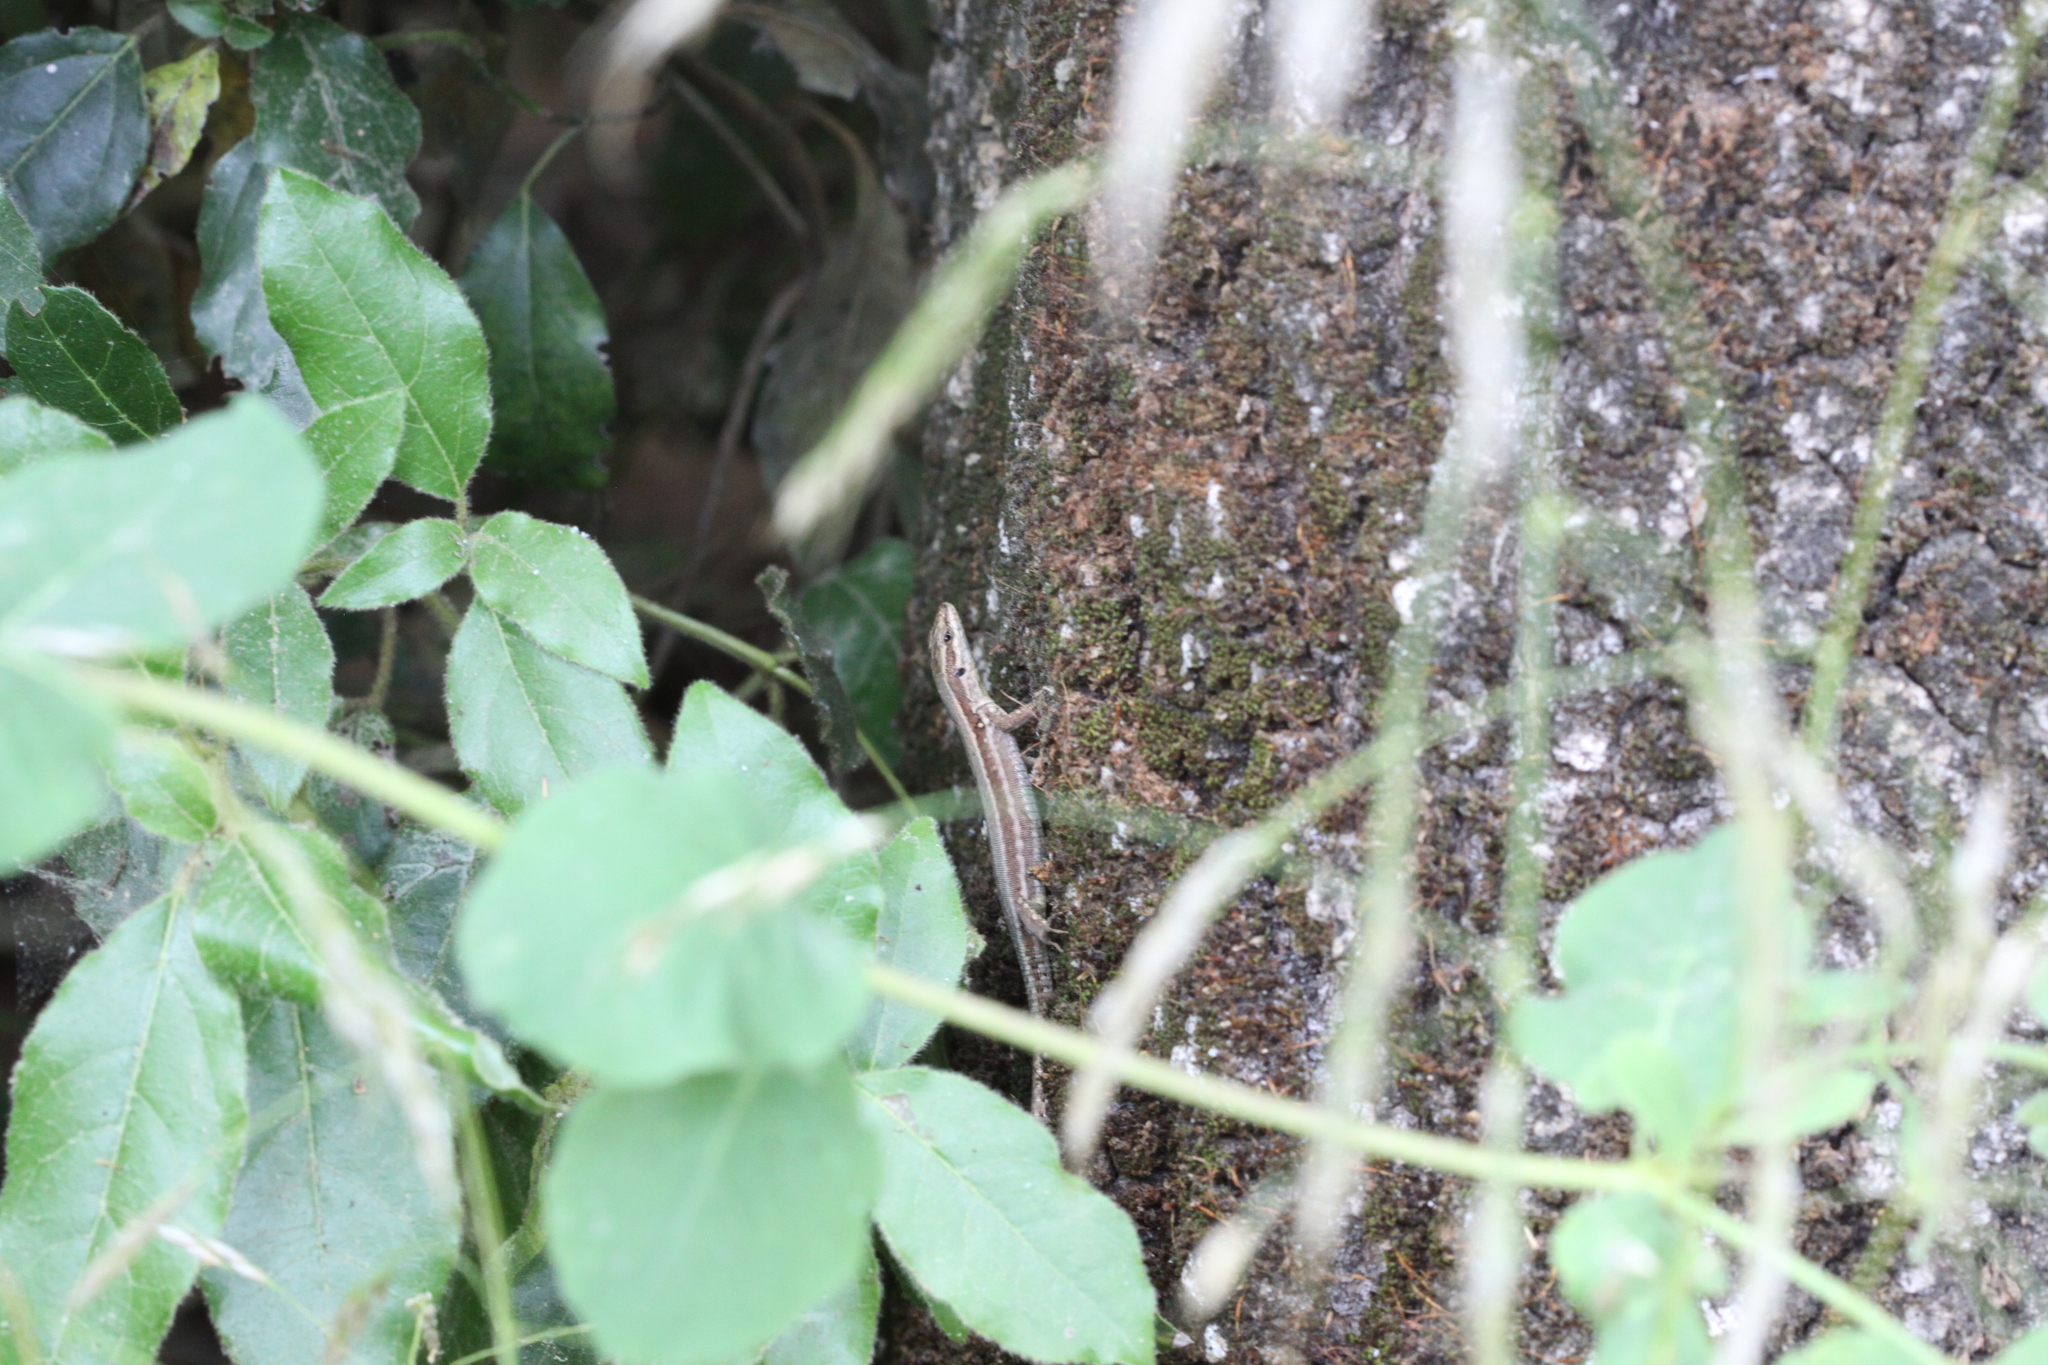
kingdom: Animalia
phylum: Chordata
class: Squamata
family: Lacertidae
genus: Podarcis
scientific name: Podarcis muralis
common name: Common wall lizard
